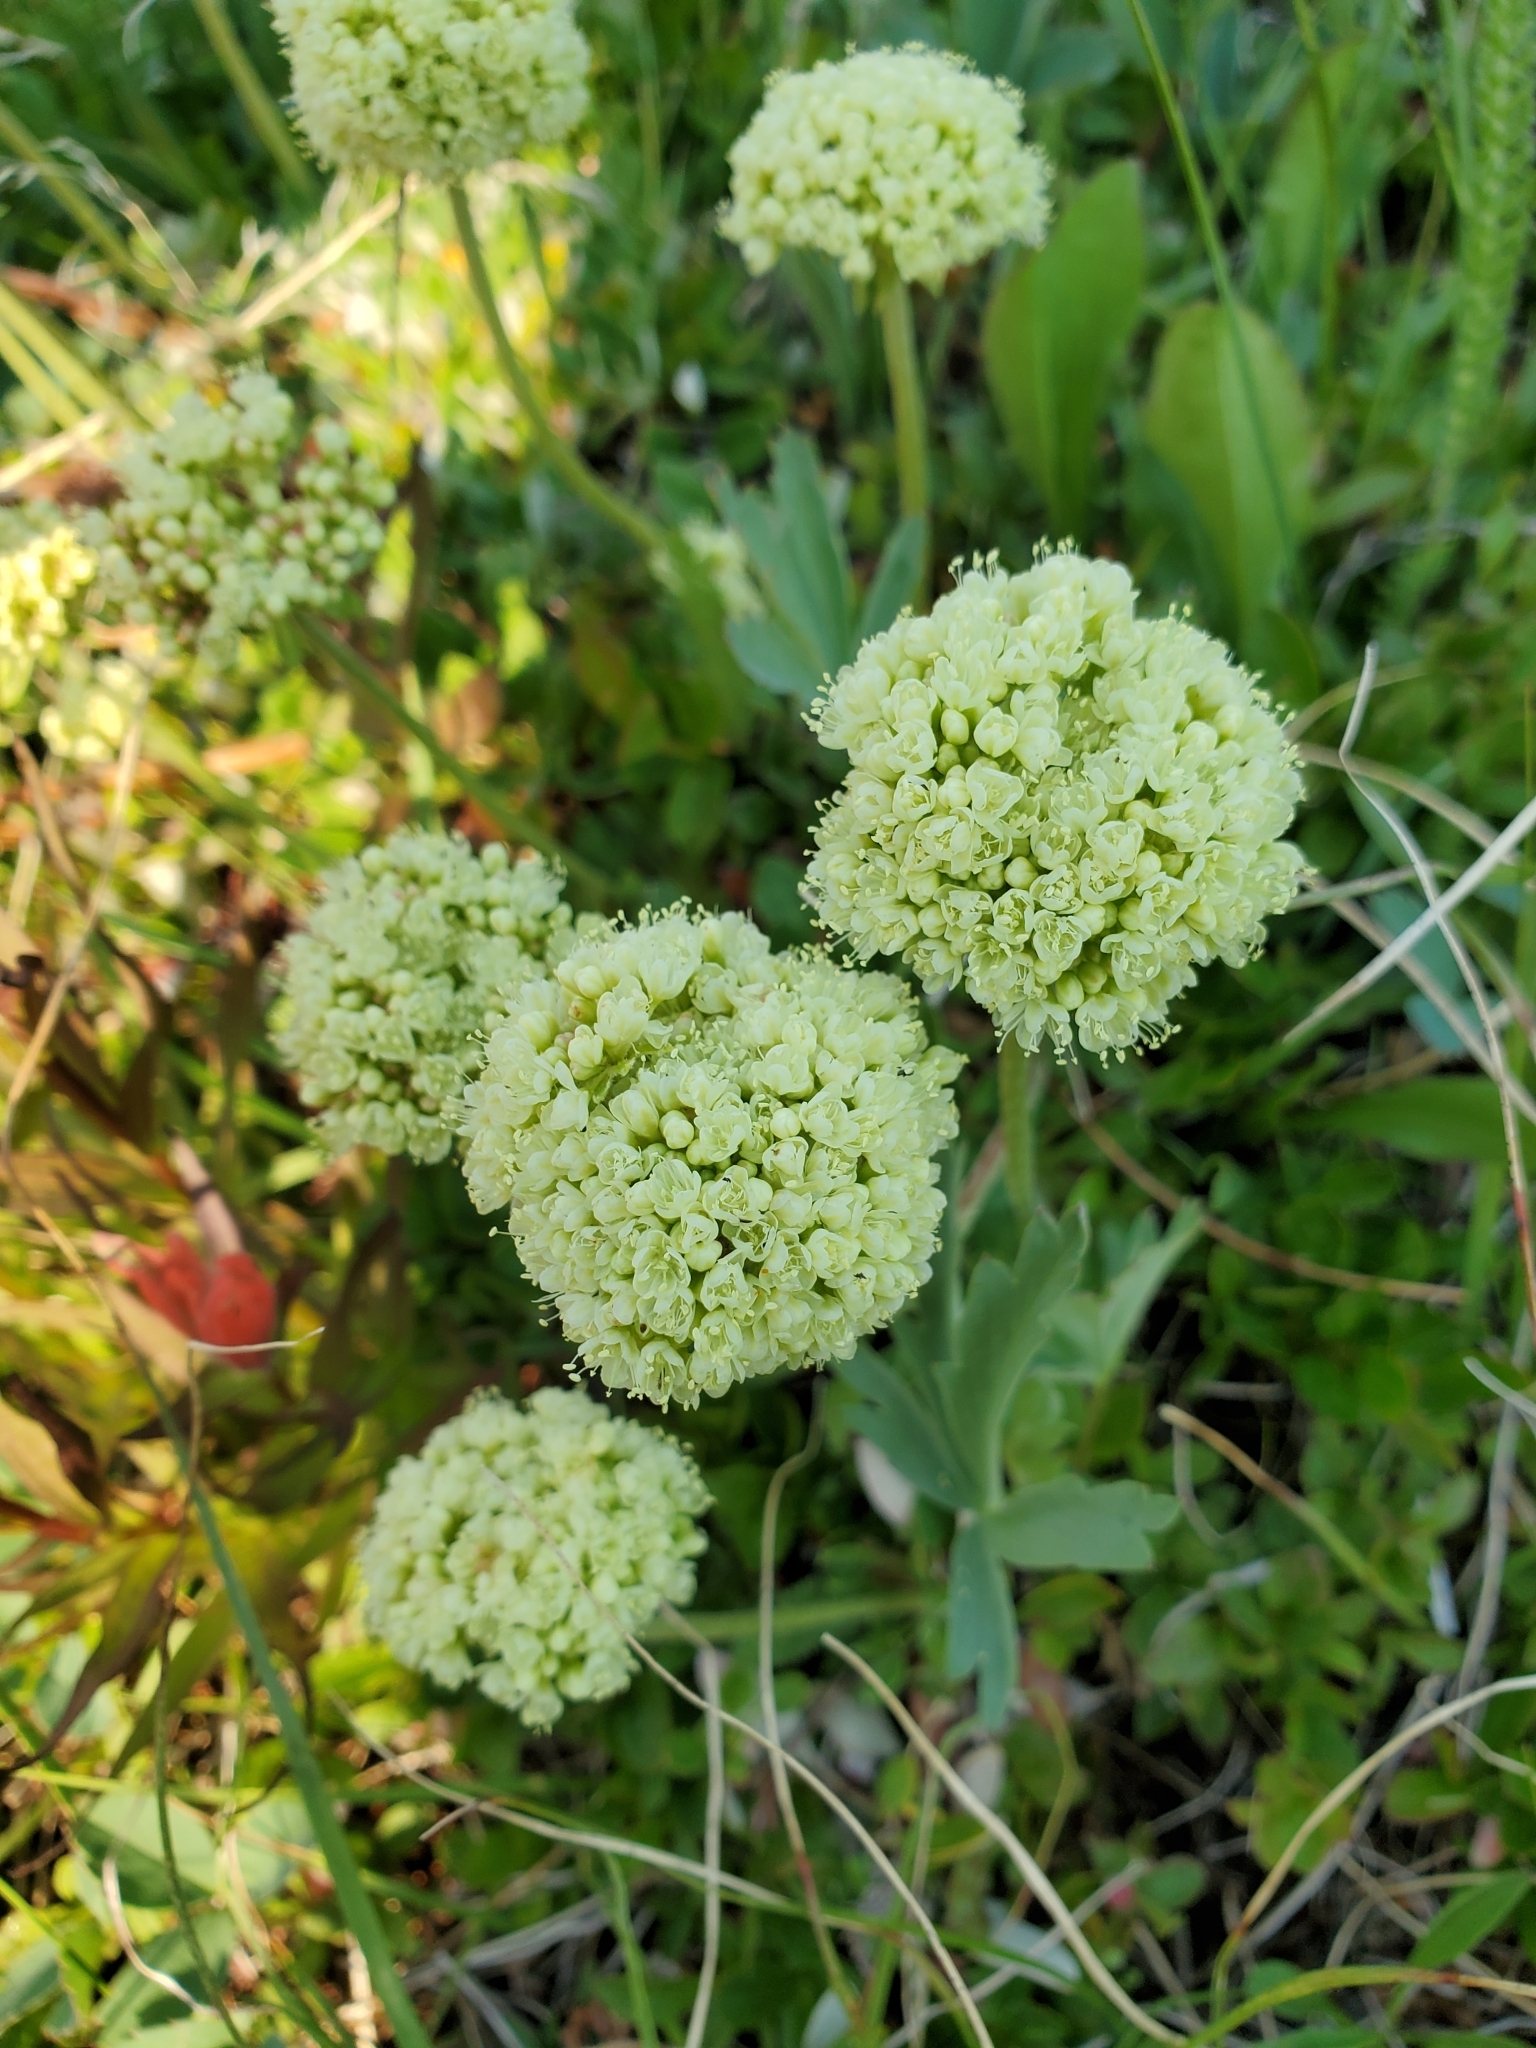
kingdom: Plantae
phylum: Tracheophyta
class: Magnoliopsida
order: Caryophyllales
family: Polygonaceae
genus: Eriogonum
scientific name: Eriogonum umbellatum
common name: Sulfur-buckwheat
